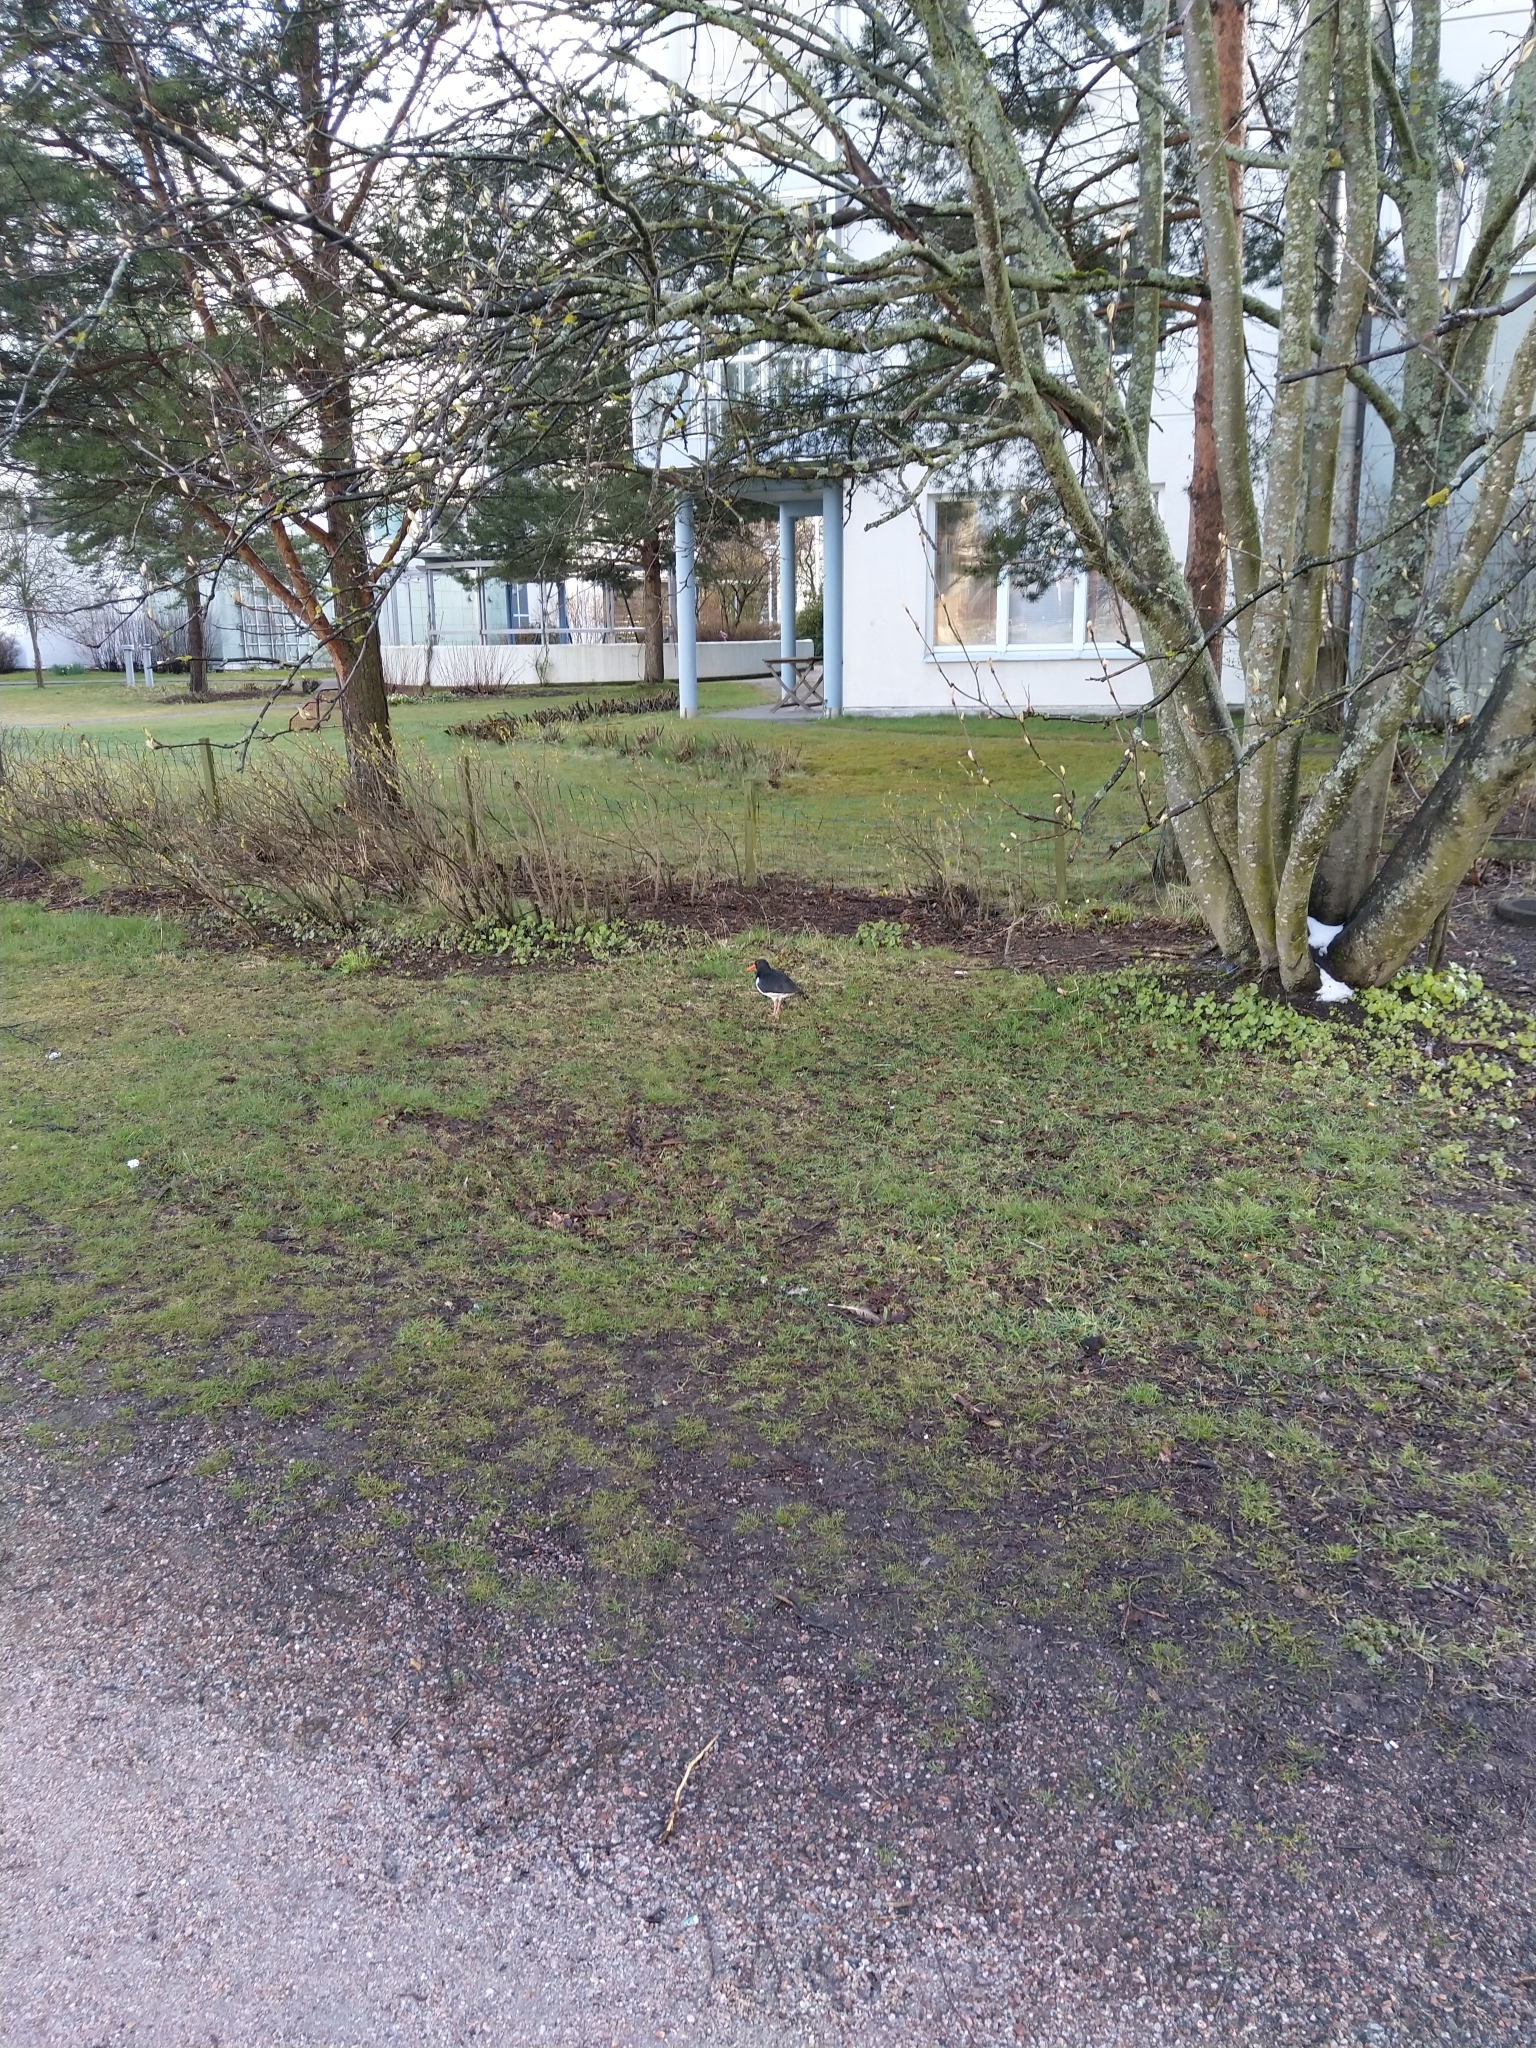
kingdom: Animalia
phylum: Chordata
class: Aves
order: Charadriiformes
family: Haematopodidae
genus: Haematopus
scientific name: Haematopus ostralegus
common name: Eurasian oystercatcher
